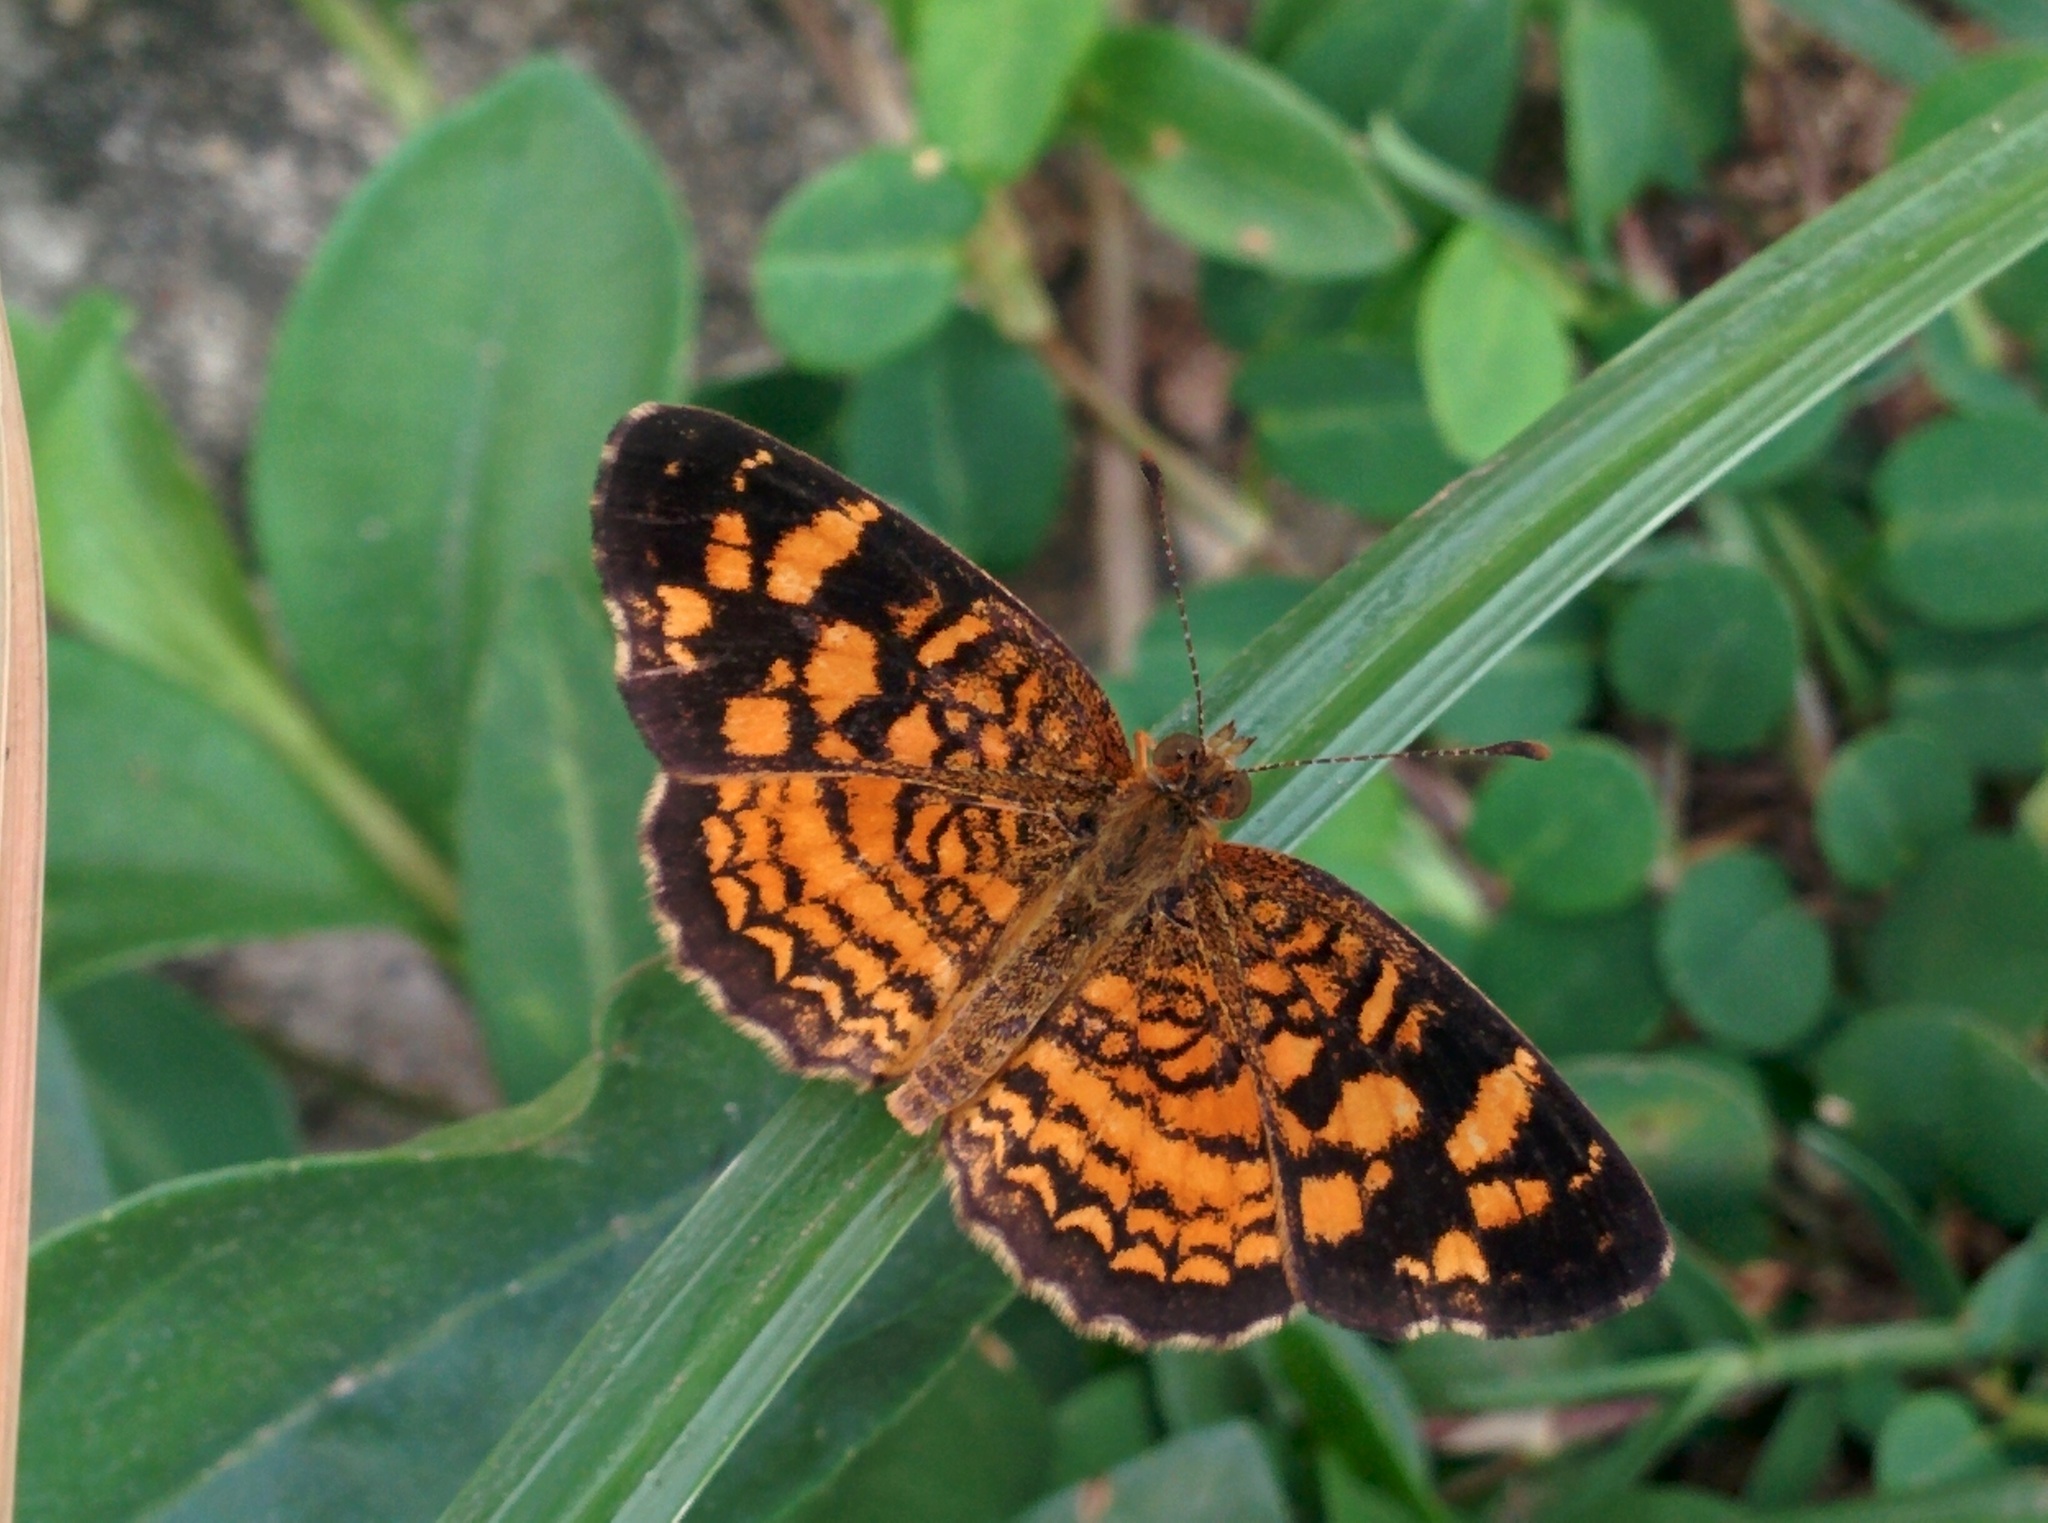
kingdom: Animalia
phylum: Arthropoda
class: Insecta
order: Lepidoptera
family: Nymphalidae
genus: Anthanassa
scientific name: Anthanassa frisia
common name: Cuban crescent
